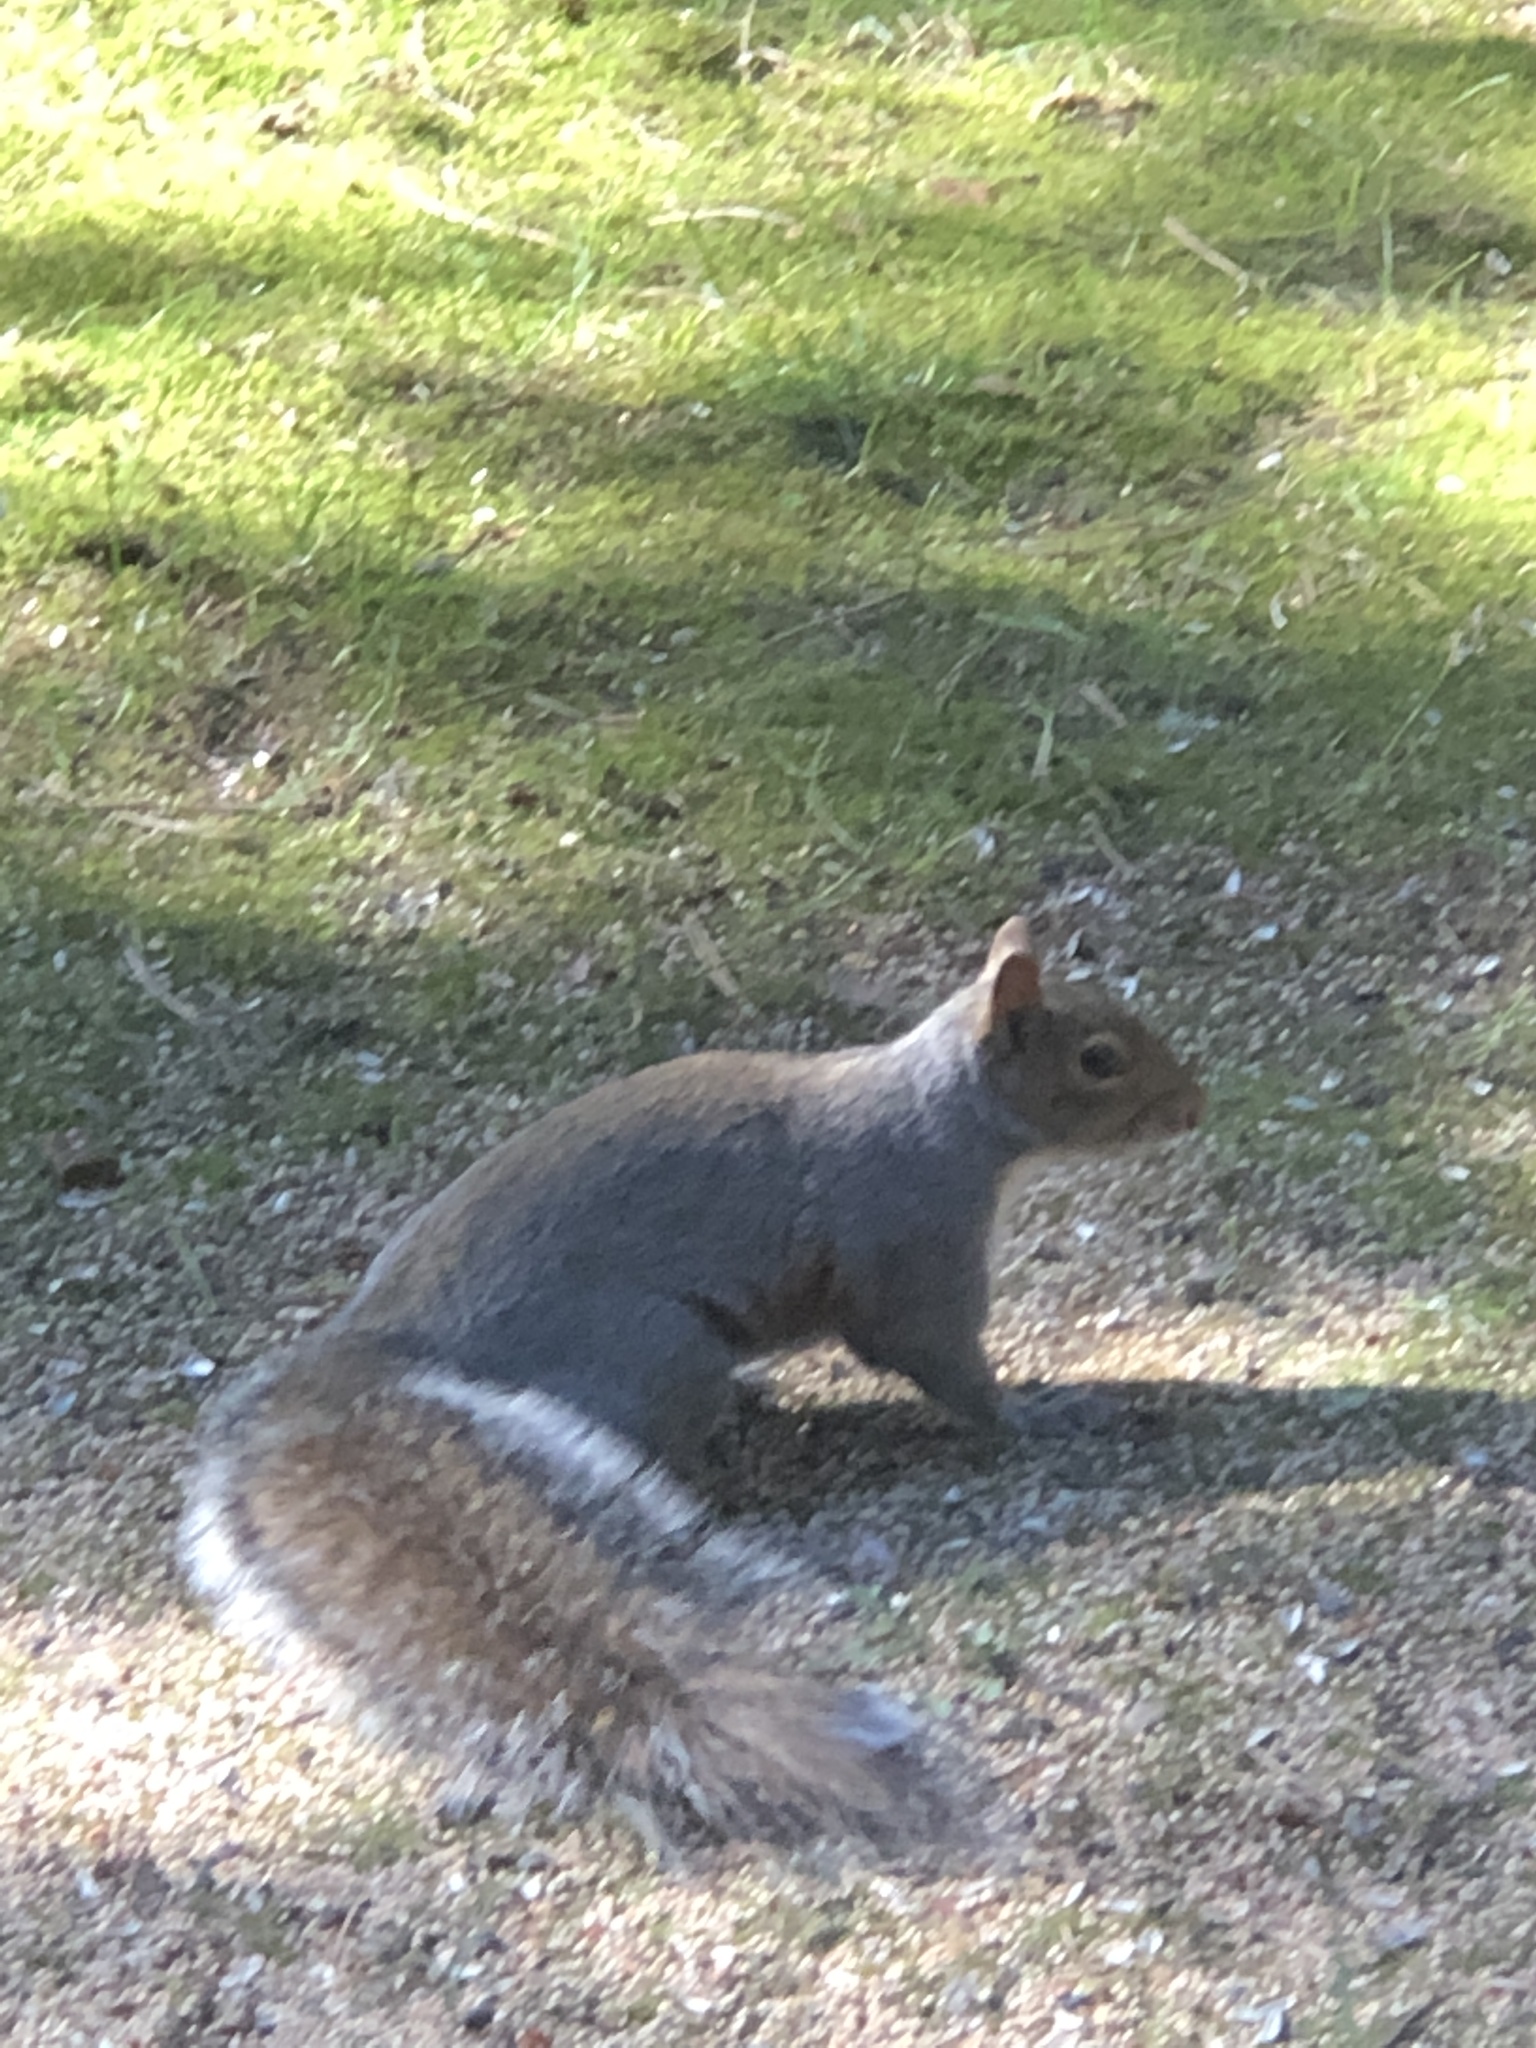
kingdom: Animalia
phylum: Chordata
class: Mammalia
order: Rodentia
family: Sciuridae
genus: Sciurus
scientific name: Sciurus carolinensis
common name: Eastern gray squirrel
